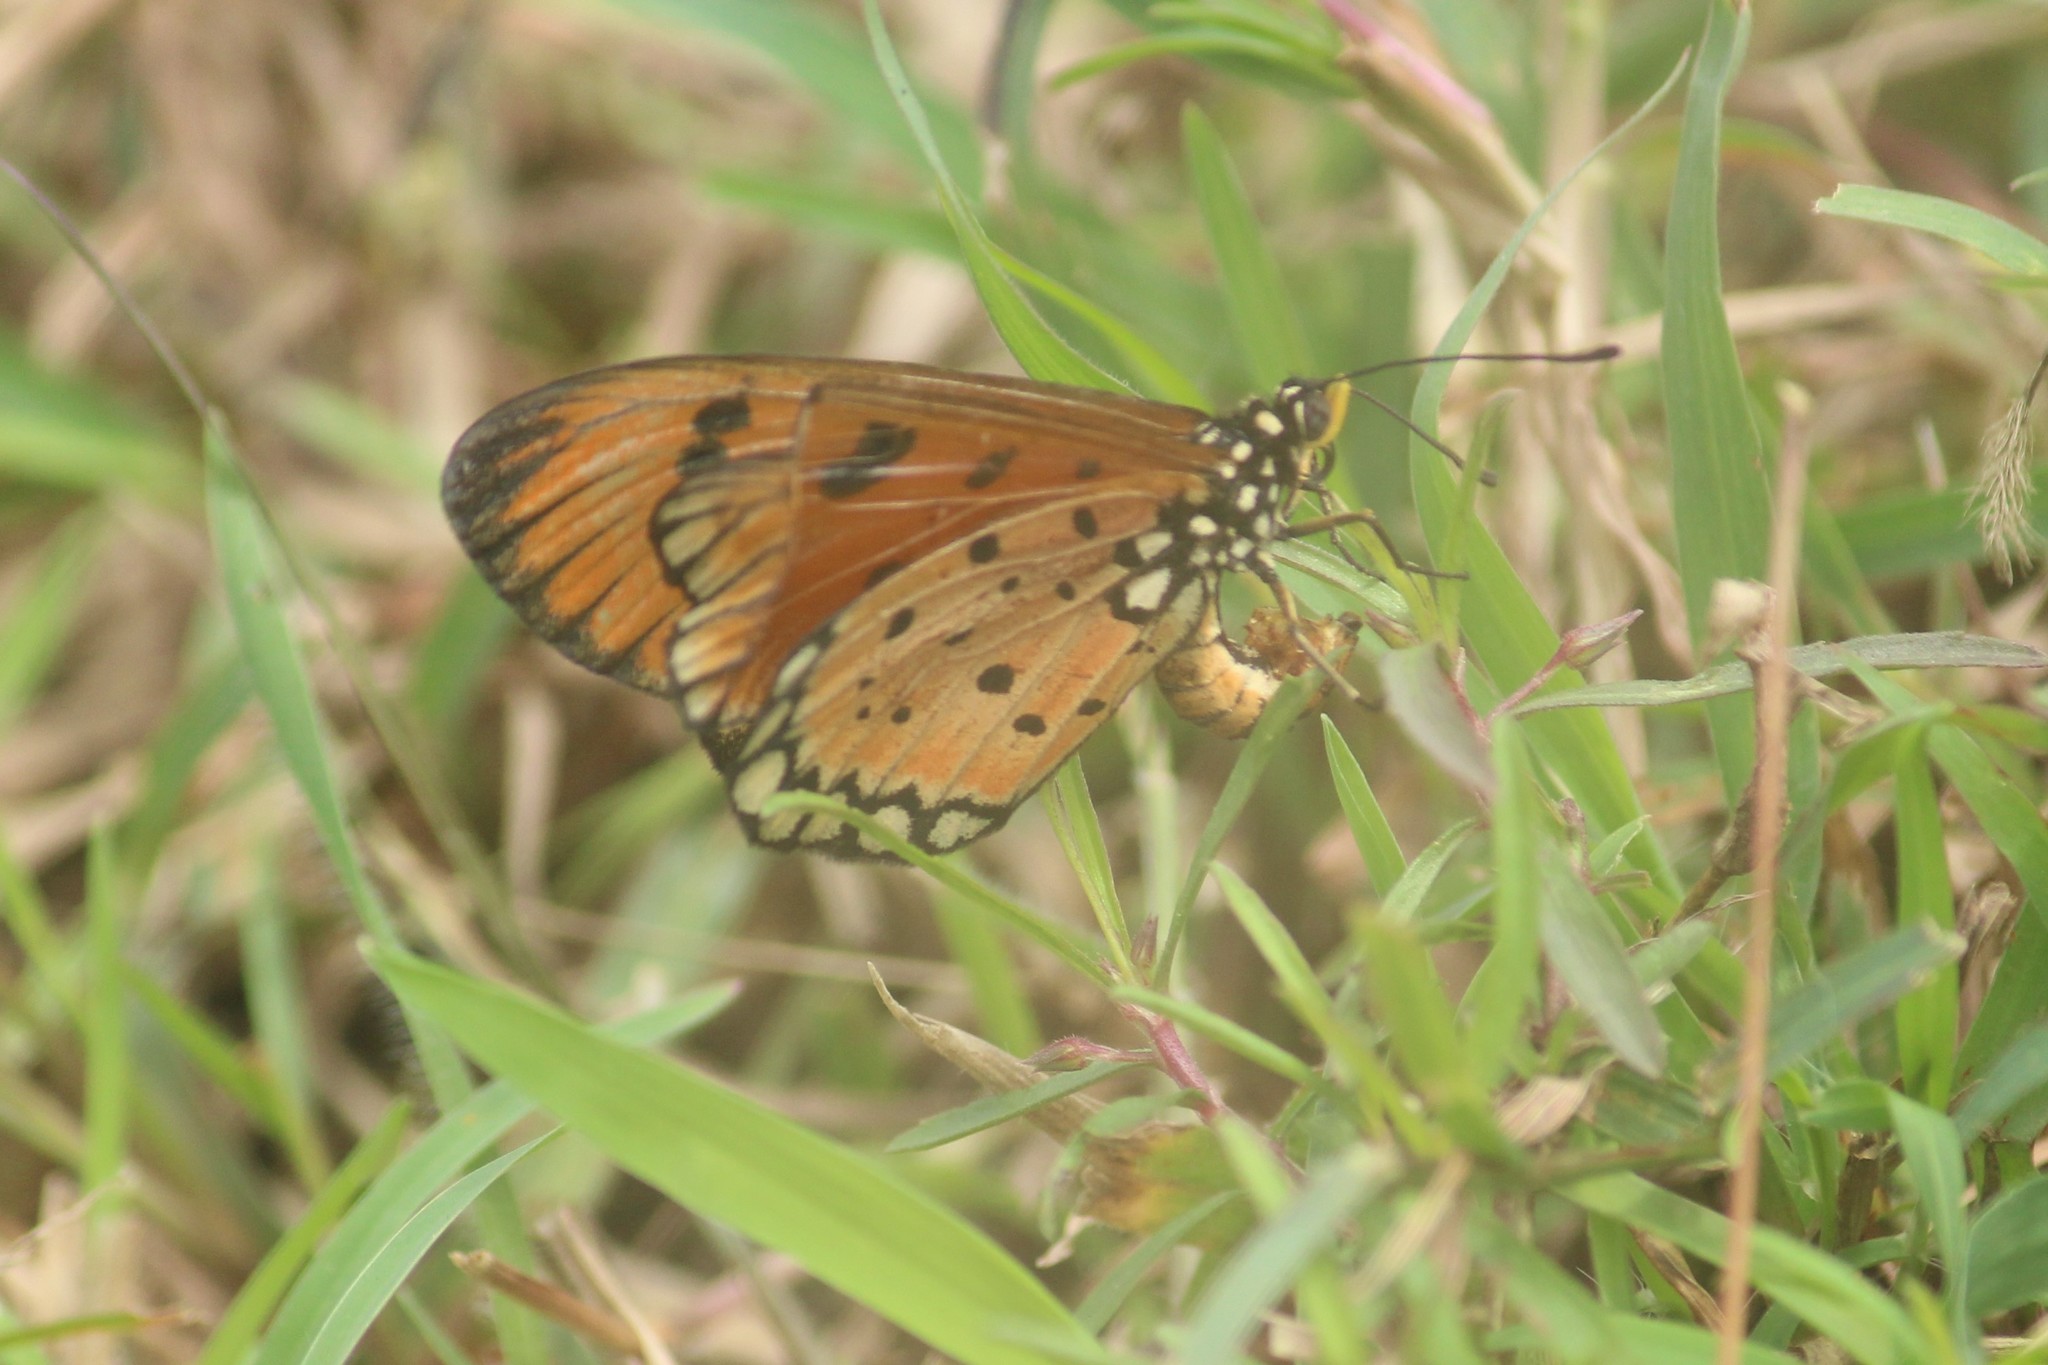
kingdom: Animalia
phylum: Arthropoda
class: Insecta
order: Lepidoptera
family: Nymphalidae
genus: Acraea
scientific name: Acraea terpsicore
